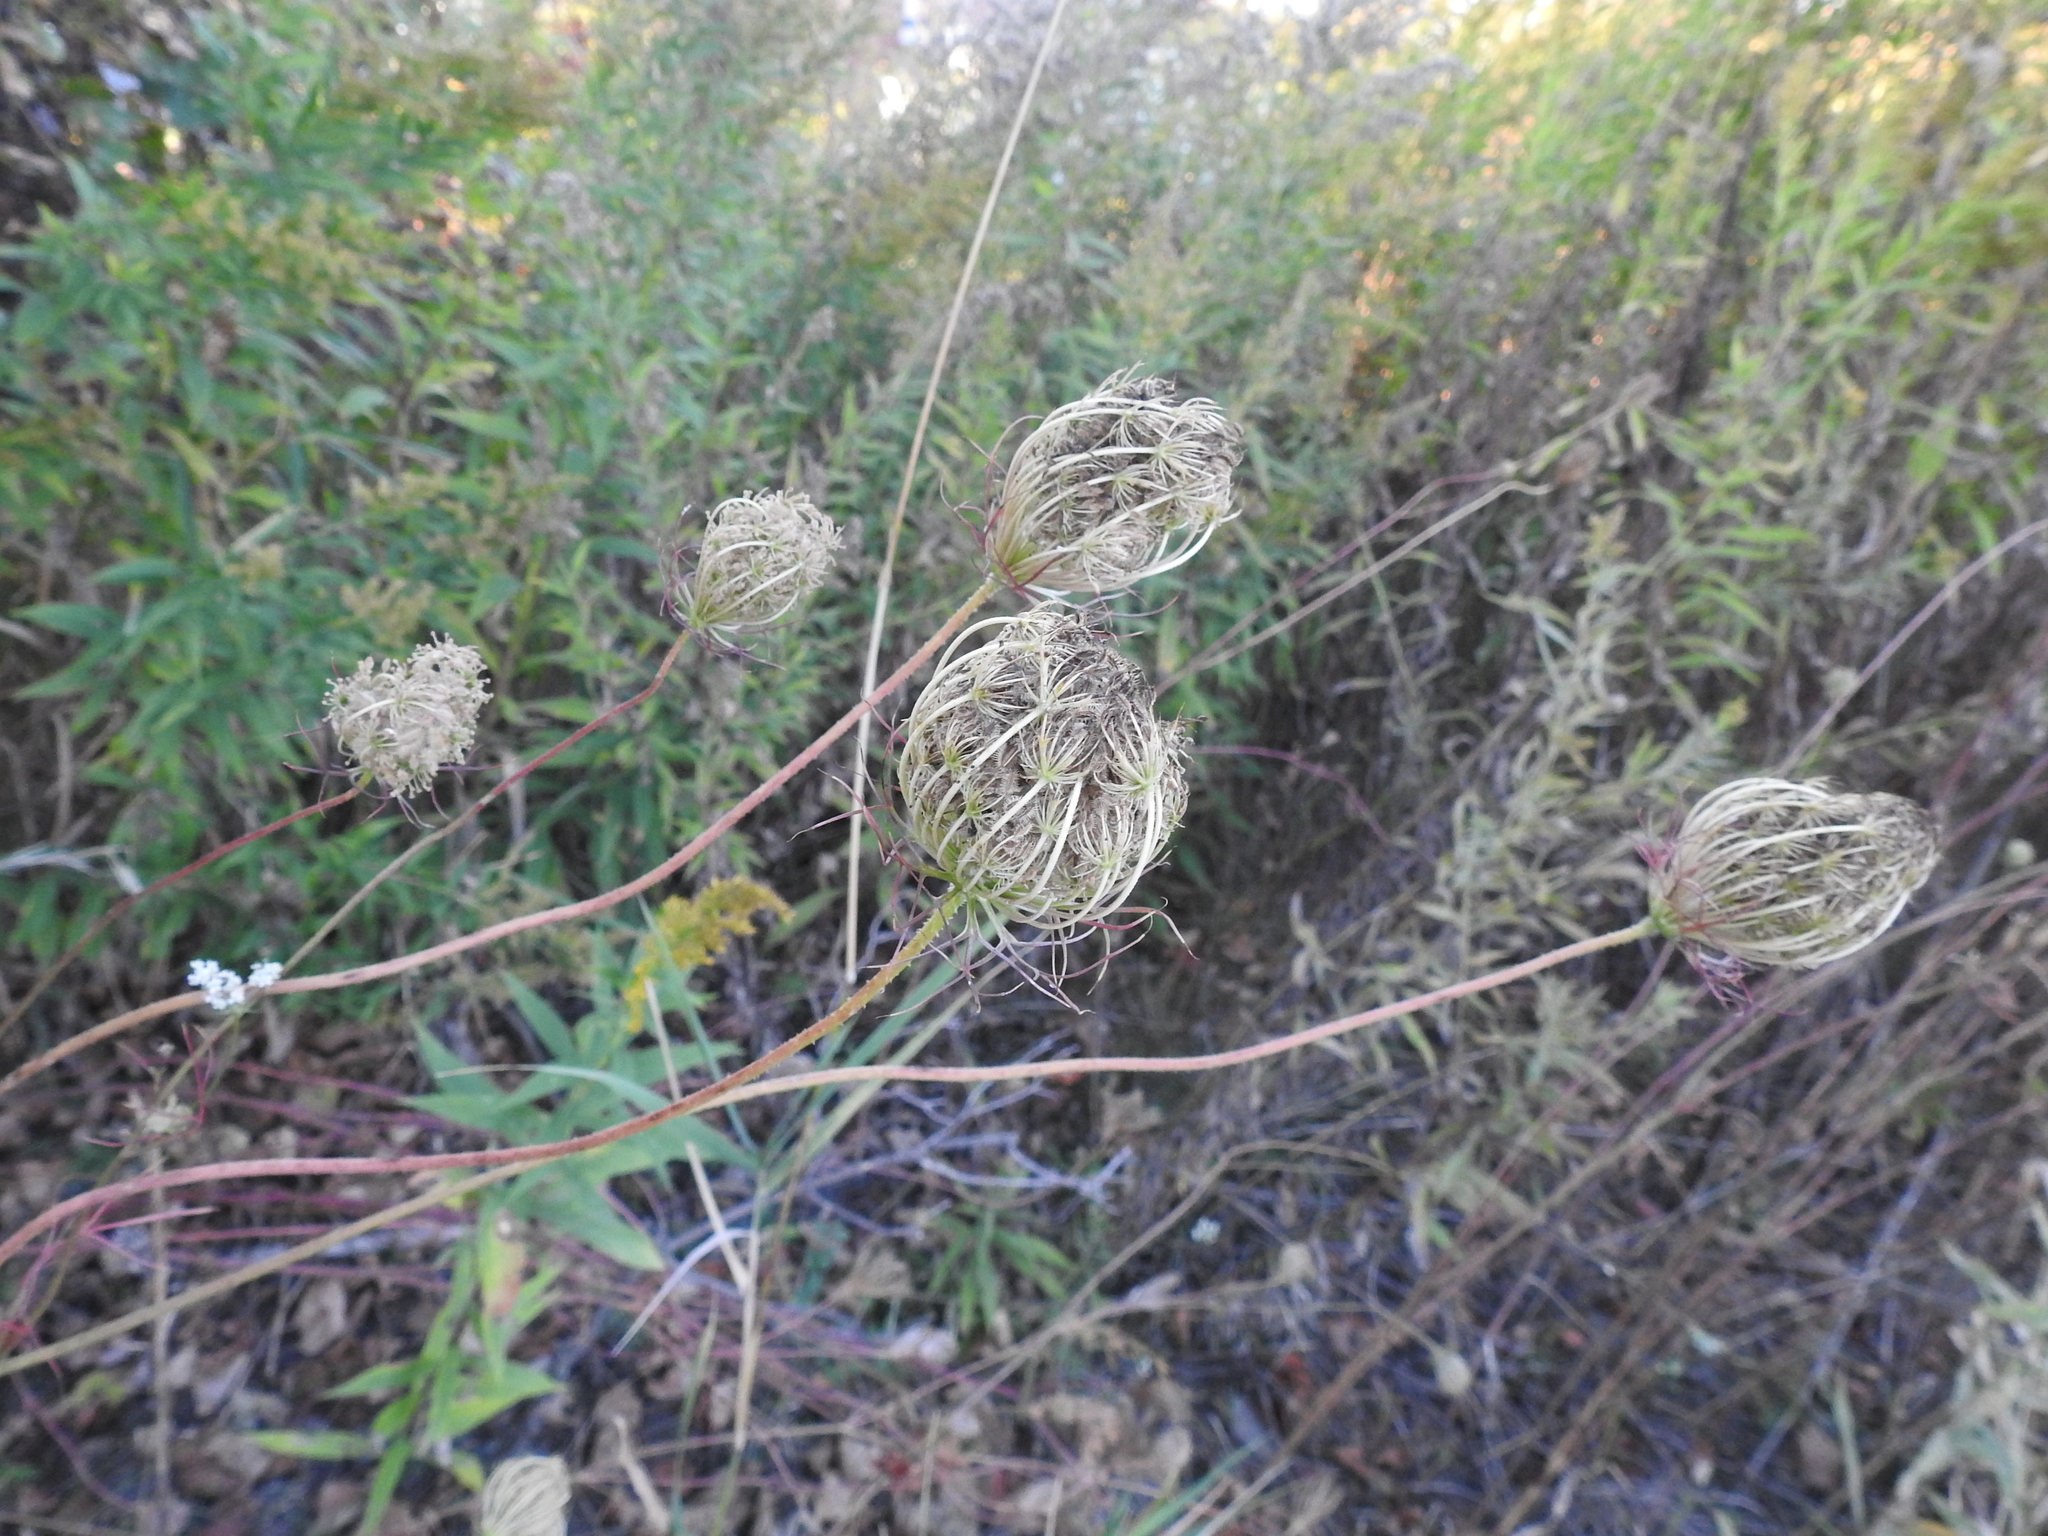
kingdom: Plantae
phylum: Tracheophyta
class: Magnoliopsida
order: Apiales
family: Apiaceae
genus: Daucus
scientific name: Daucus carota
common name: Wild carrot
